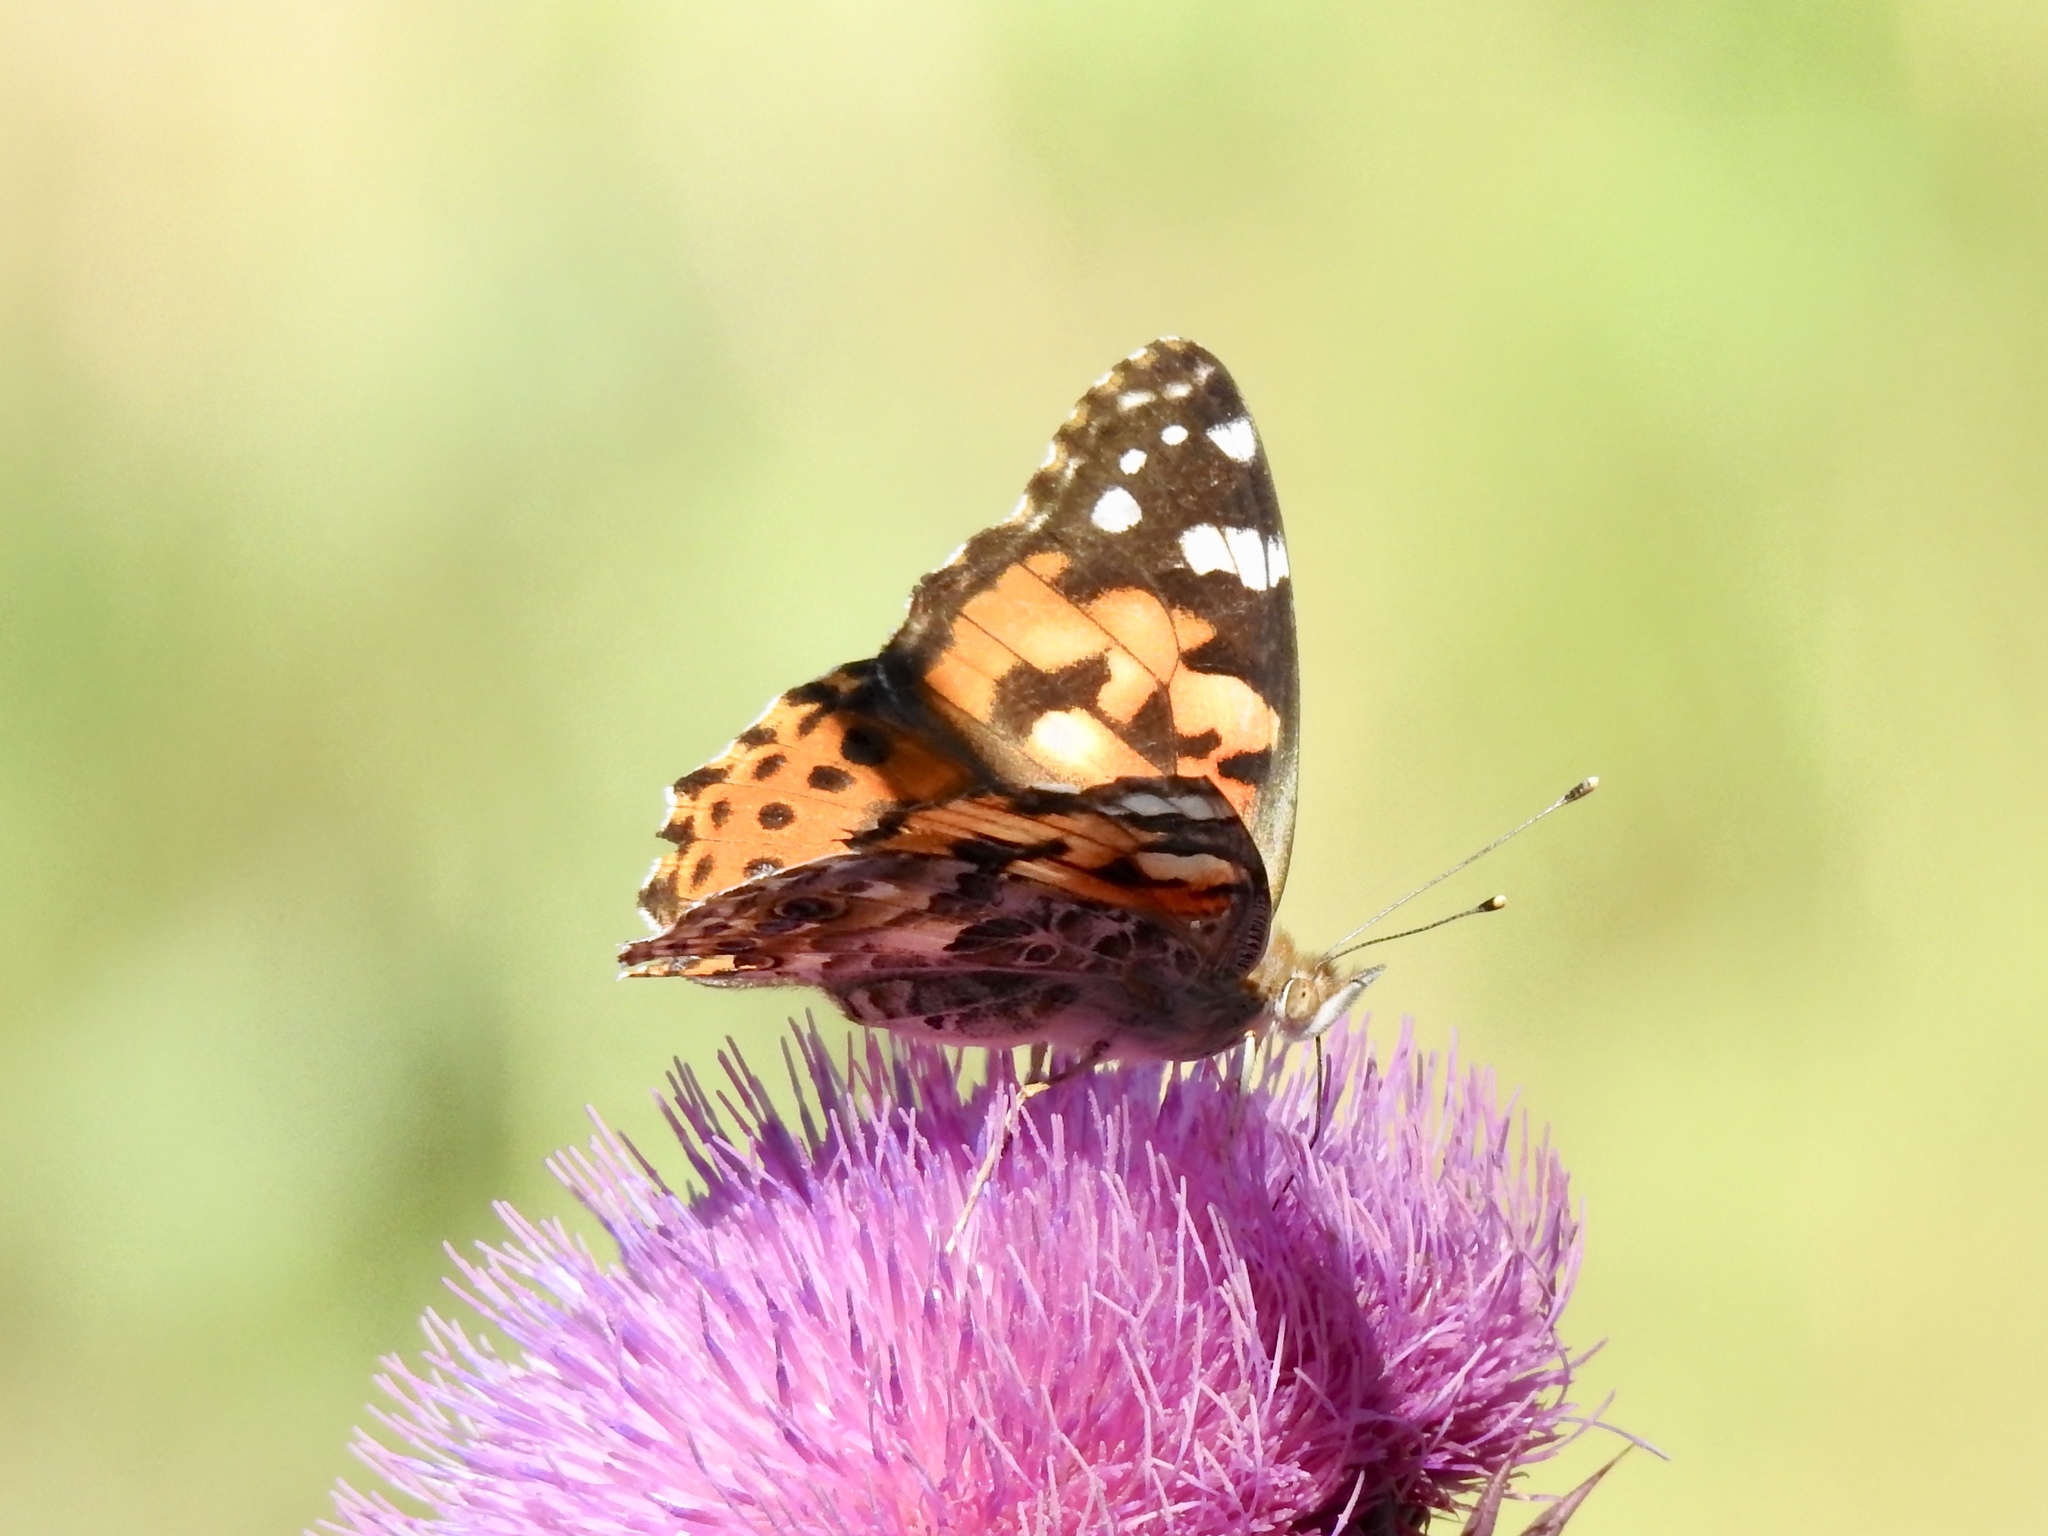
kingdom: Animalia
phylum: Arthropoda
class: Insecta
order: Lepidoptera
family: Nymphalidae
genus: Vanessa
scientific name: Vanessa cardui
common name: Painted lady
